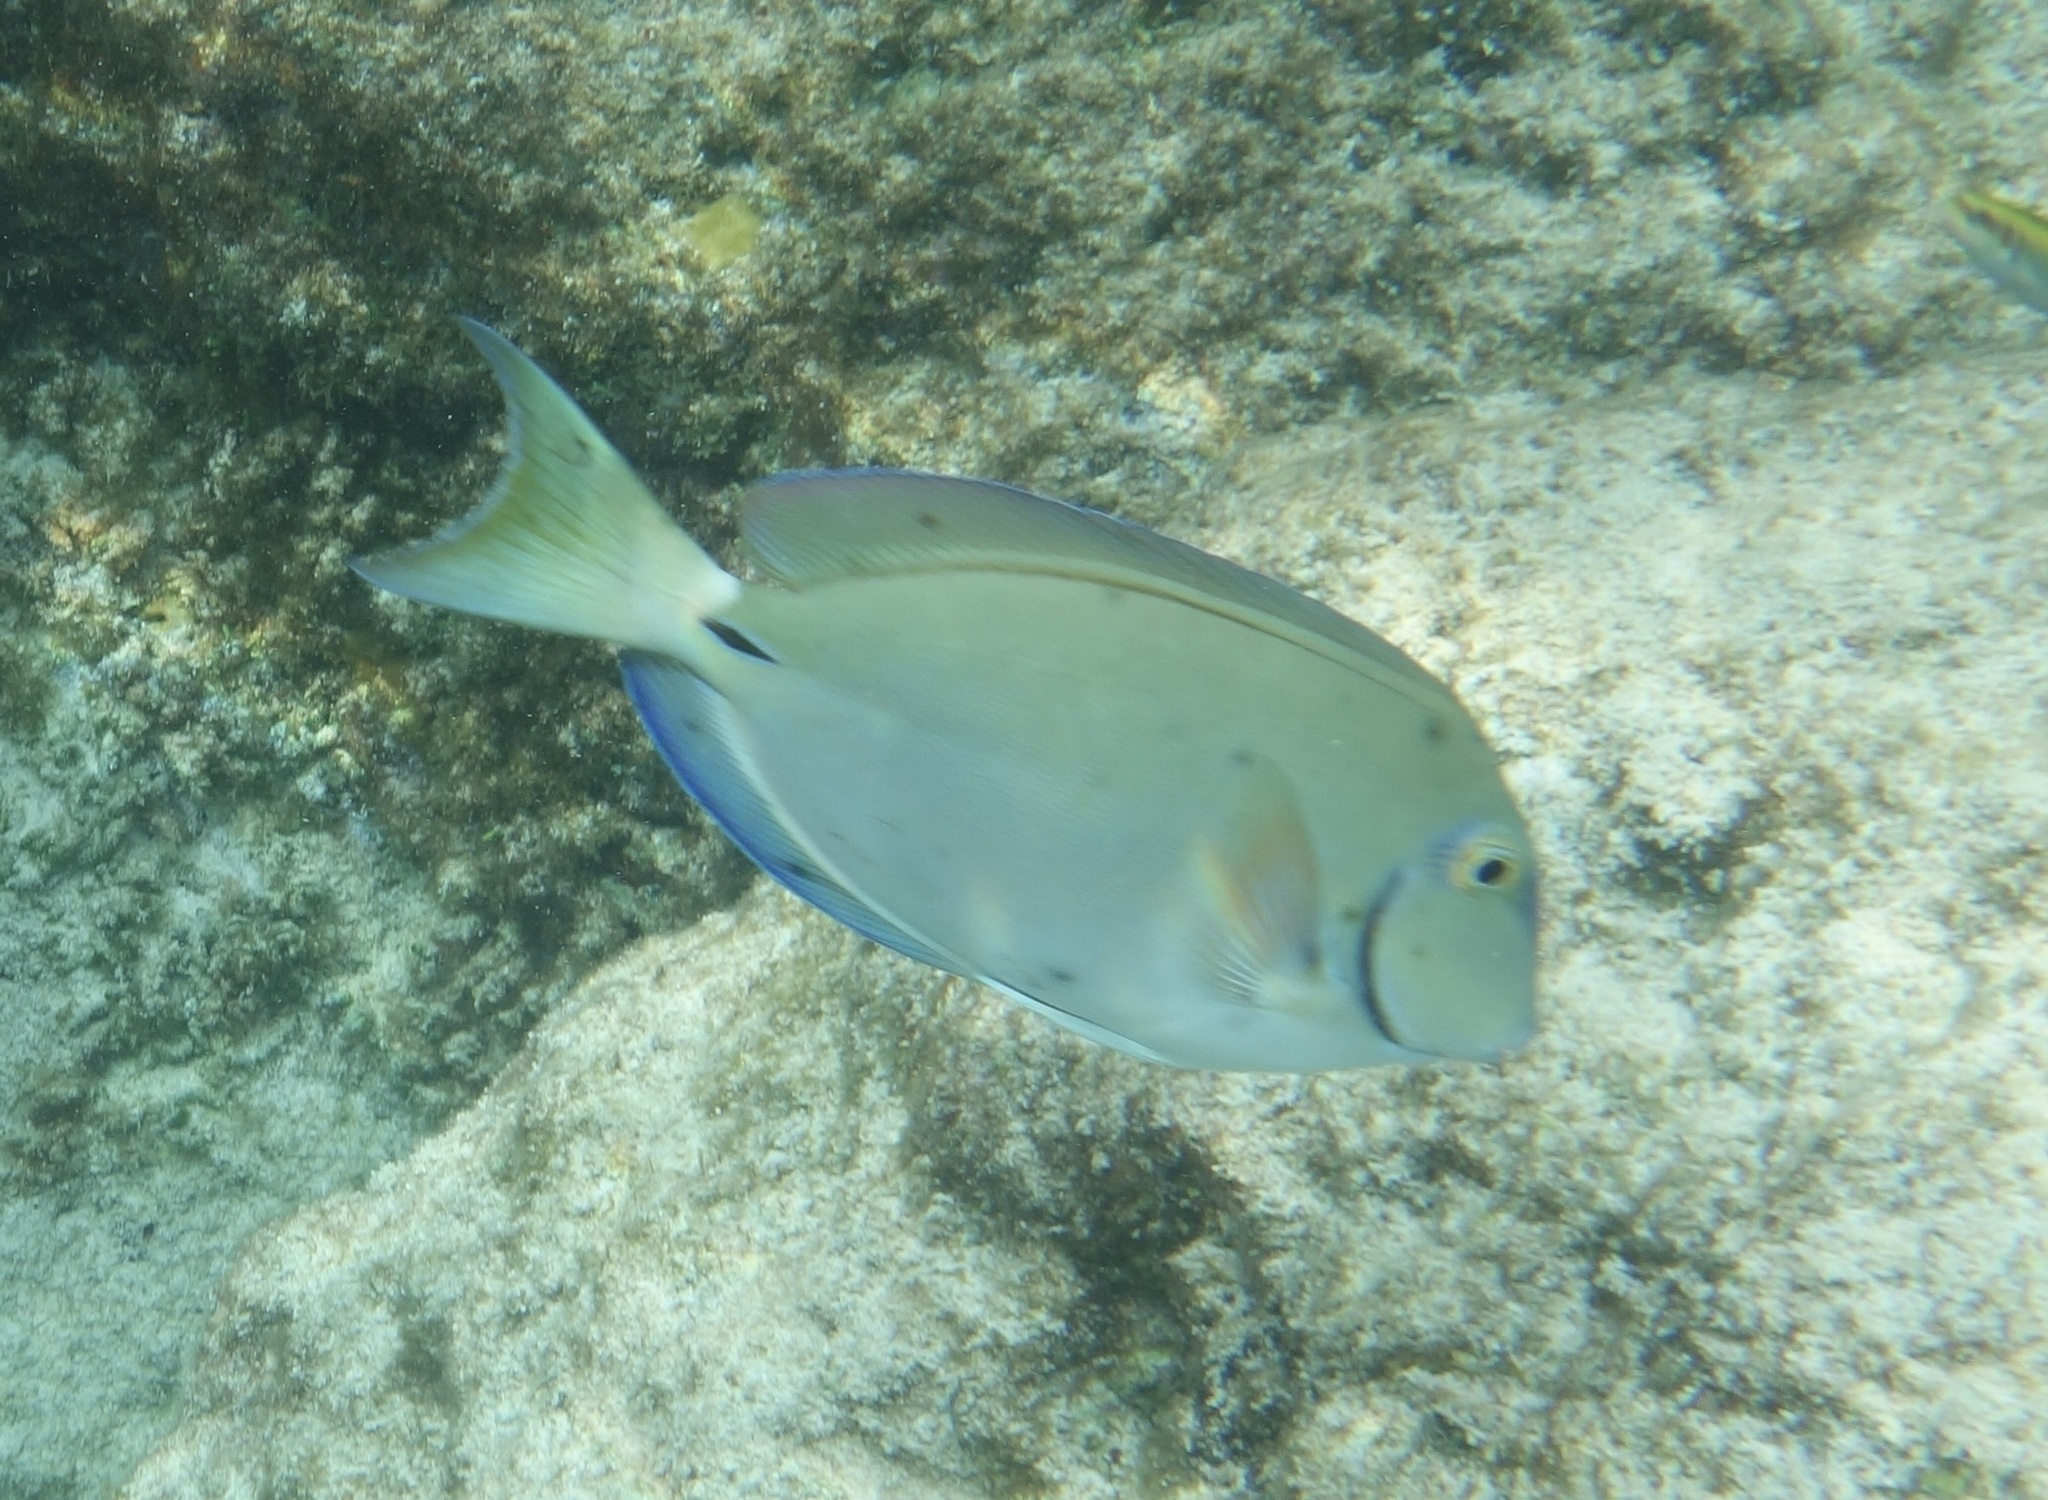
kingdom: Animalia
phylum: Chordata
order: Perciformes
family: Acanthuridae
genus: Acanthurus
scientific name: Acanthurus bahianus
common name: Ocean surgeon
